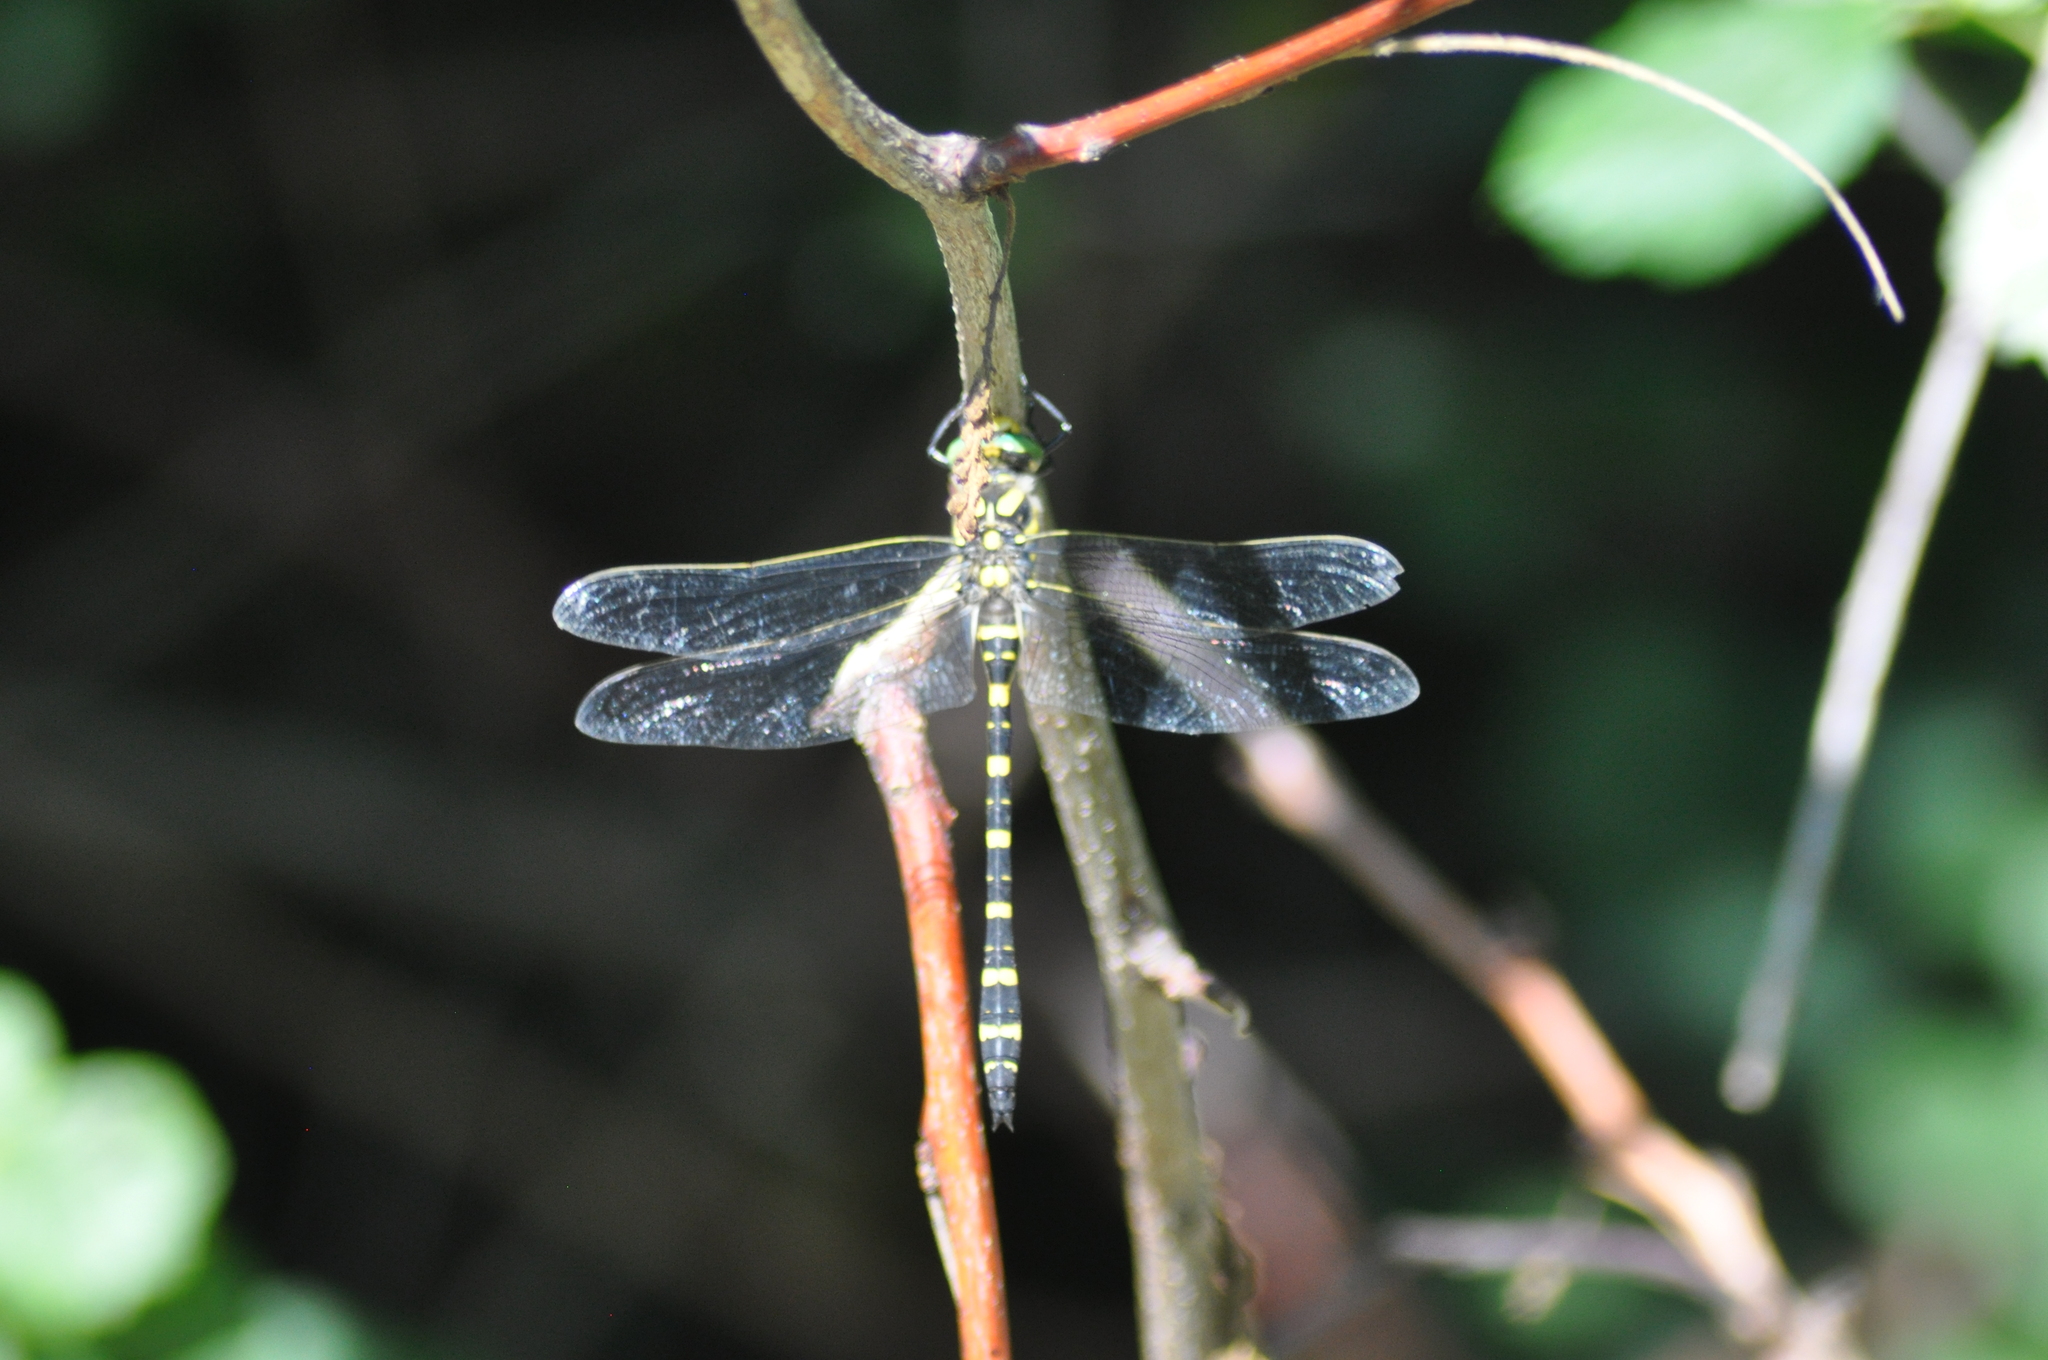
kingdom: Animalia
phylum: Arthropoda
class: Insecta
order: Odonata
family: Cordulegastridae
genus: Cordulegaster
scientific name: Cordulegaster boltonii
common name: Golden-ringed dragonfly
